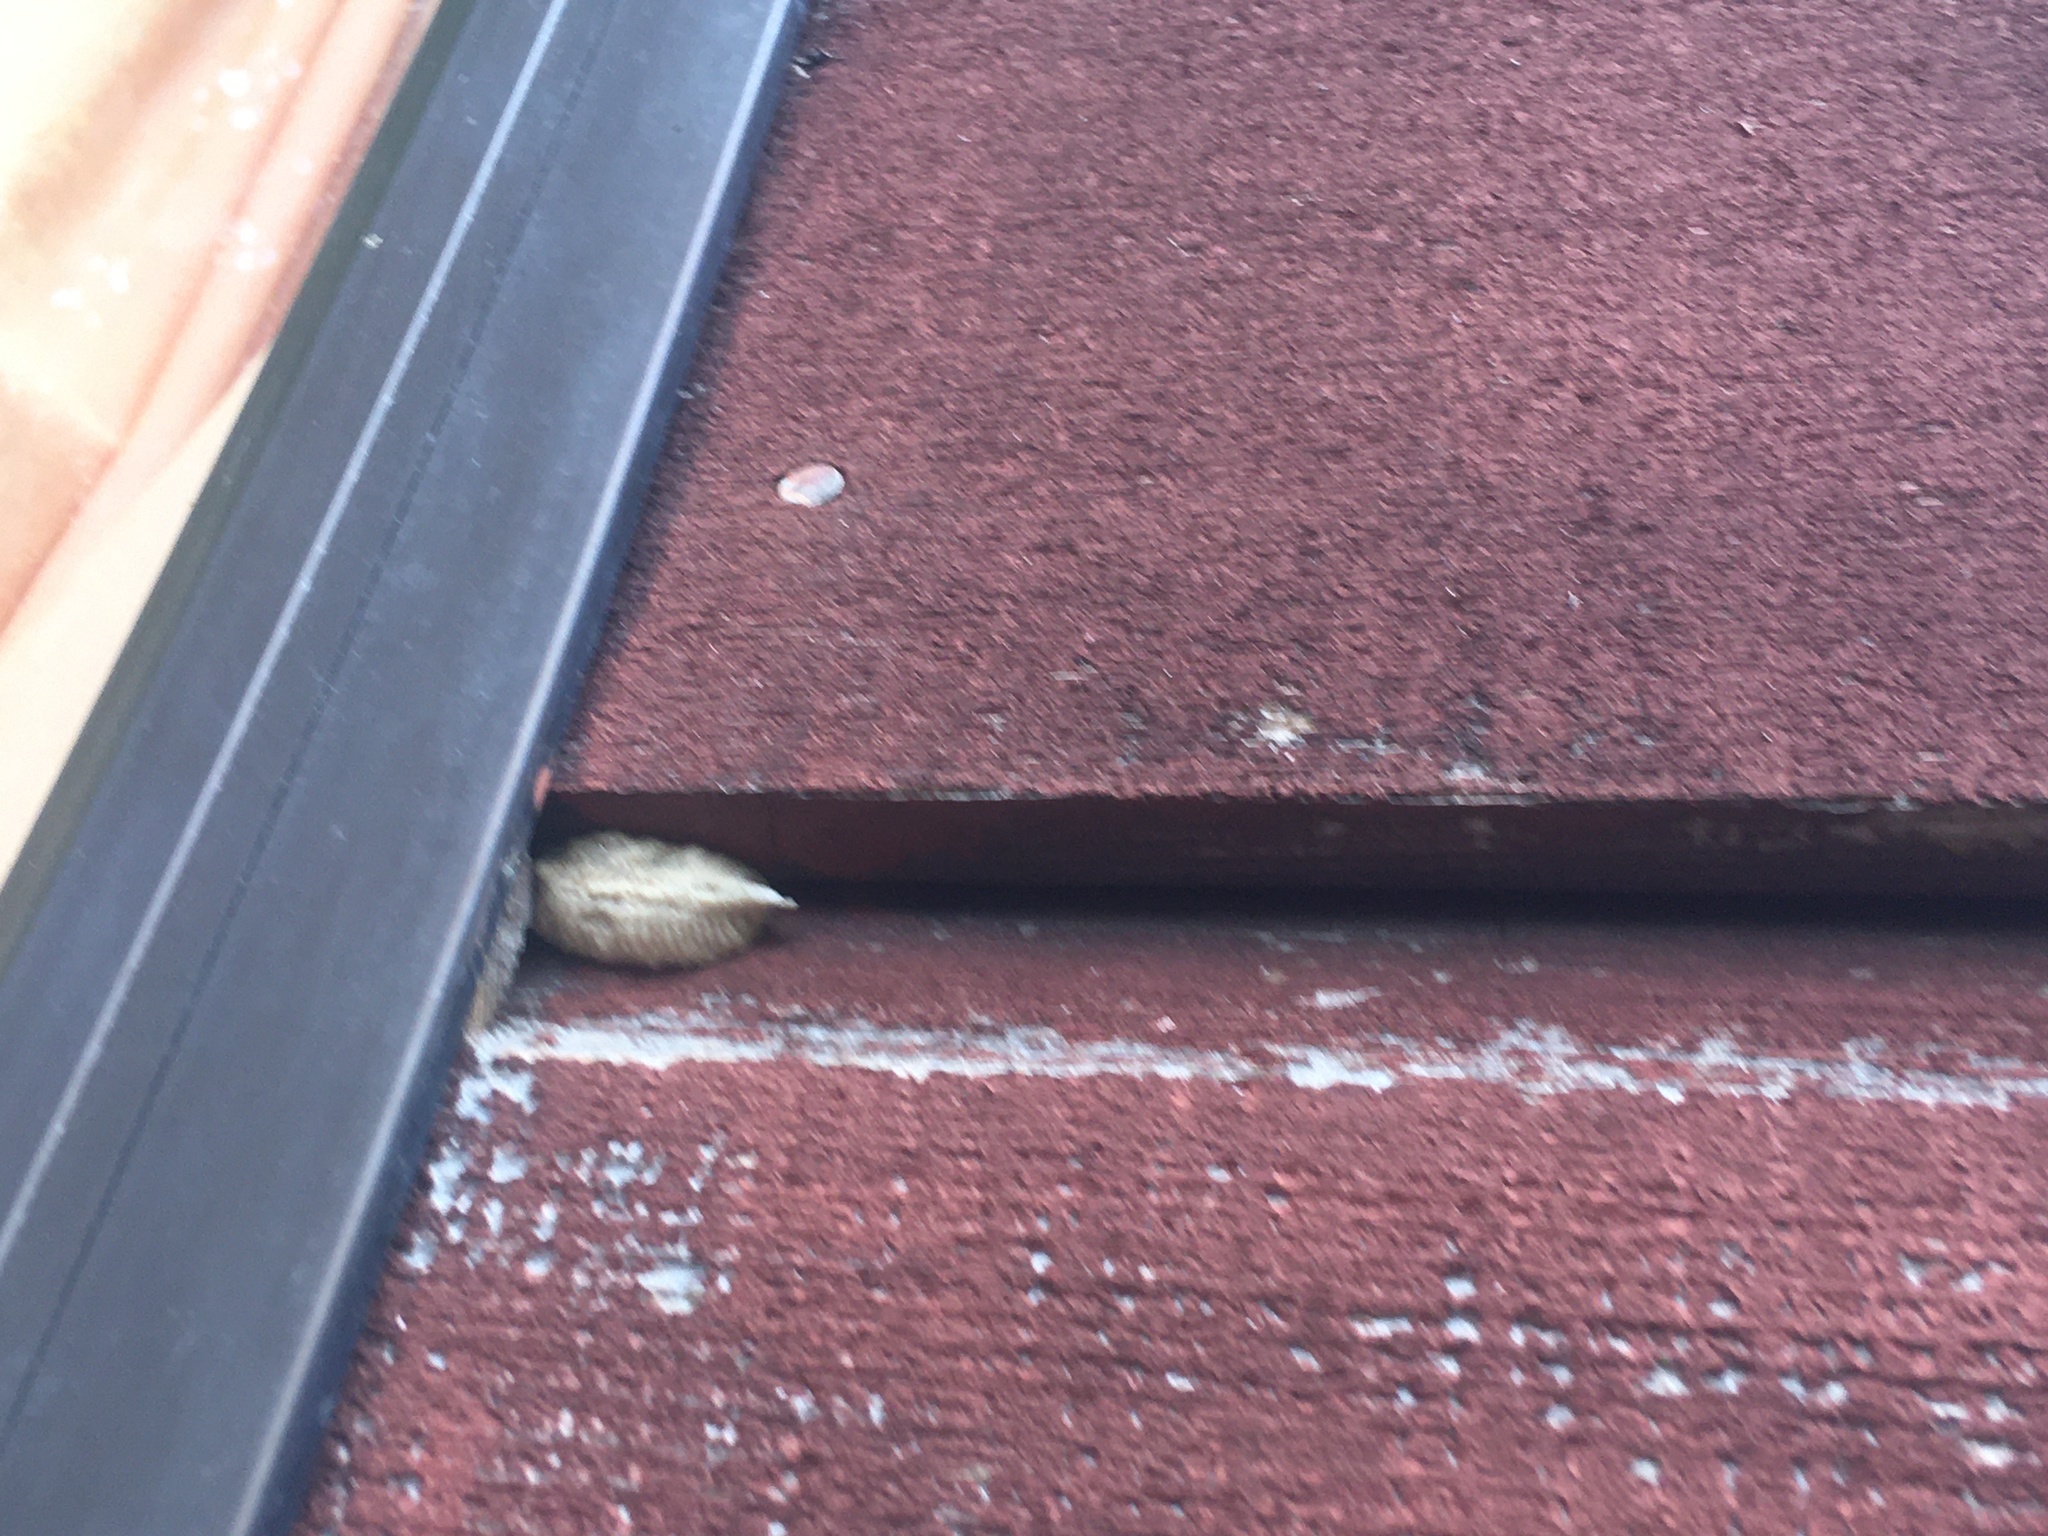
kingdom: Animalia
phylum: Arthropoda
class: Insecta
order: Mantodea
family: Miomantidae
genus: Miomantis
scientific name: Miomantis caffra
